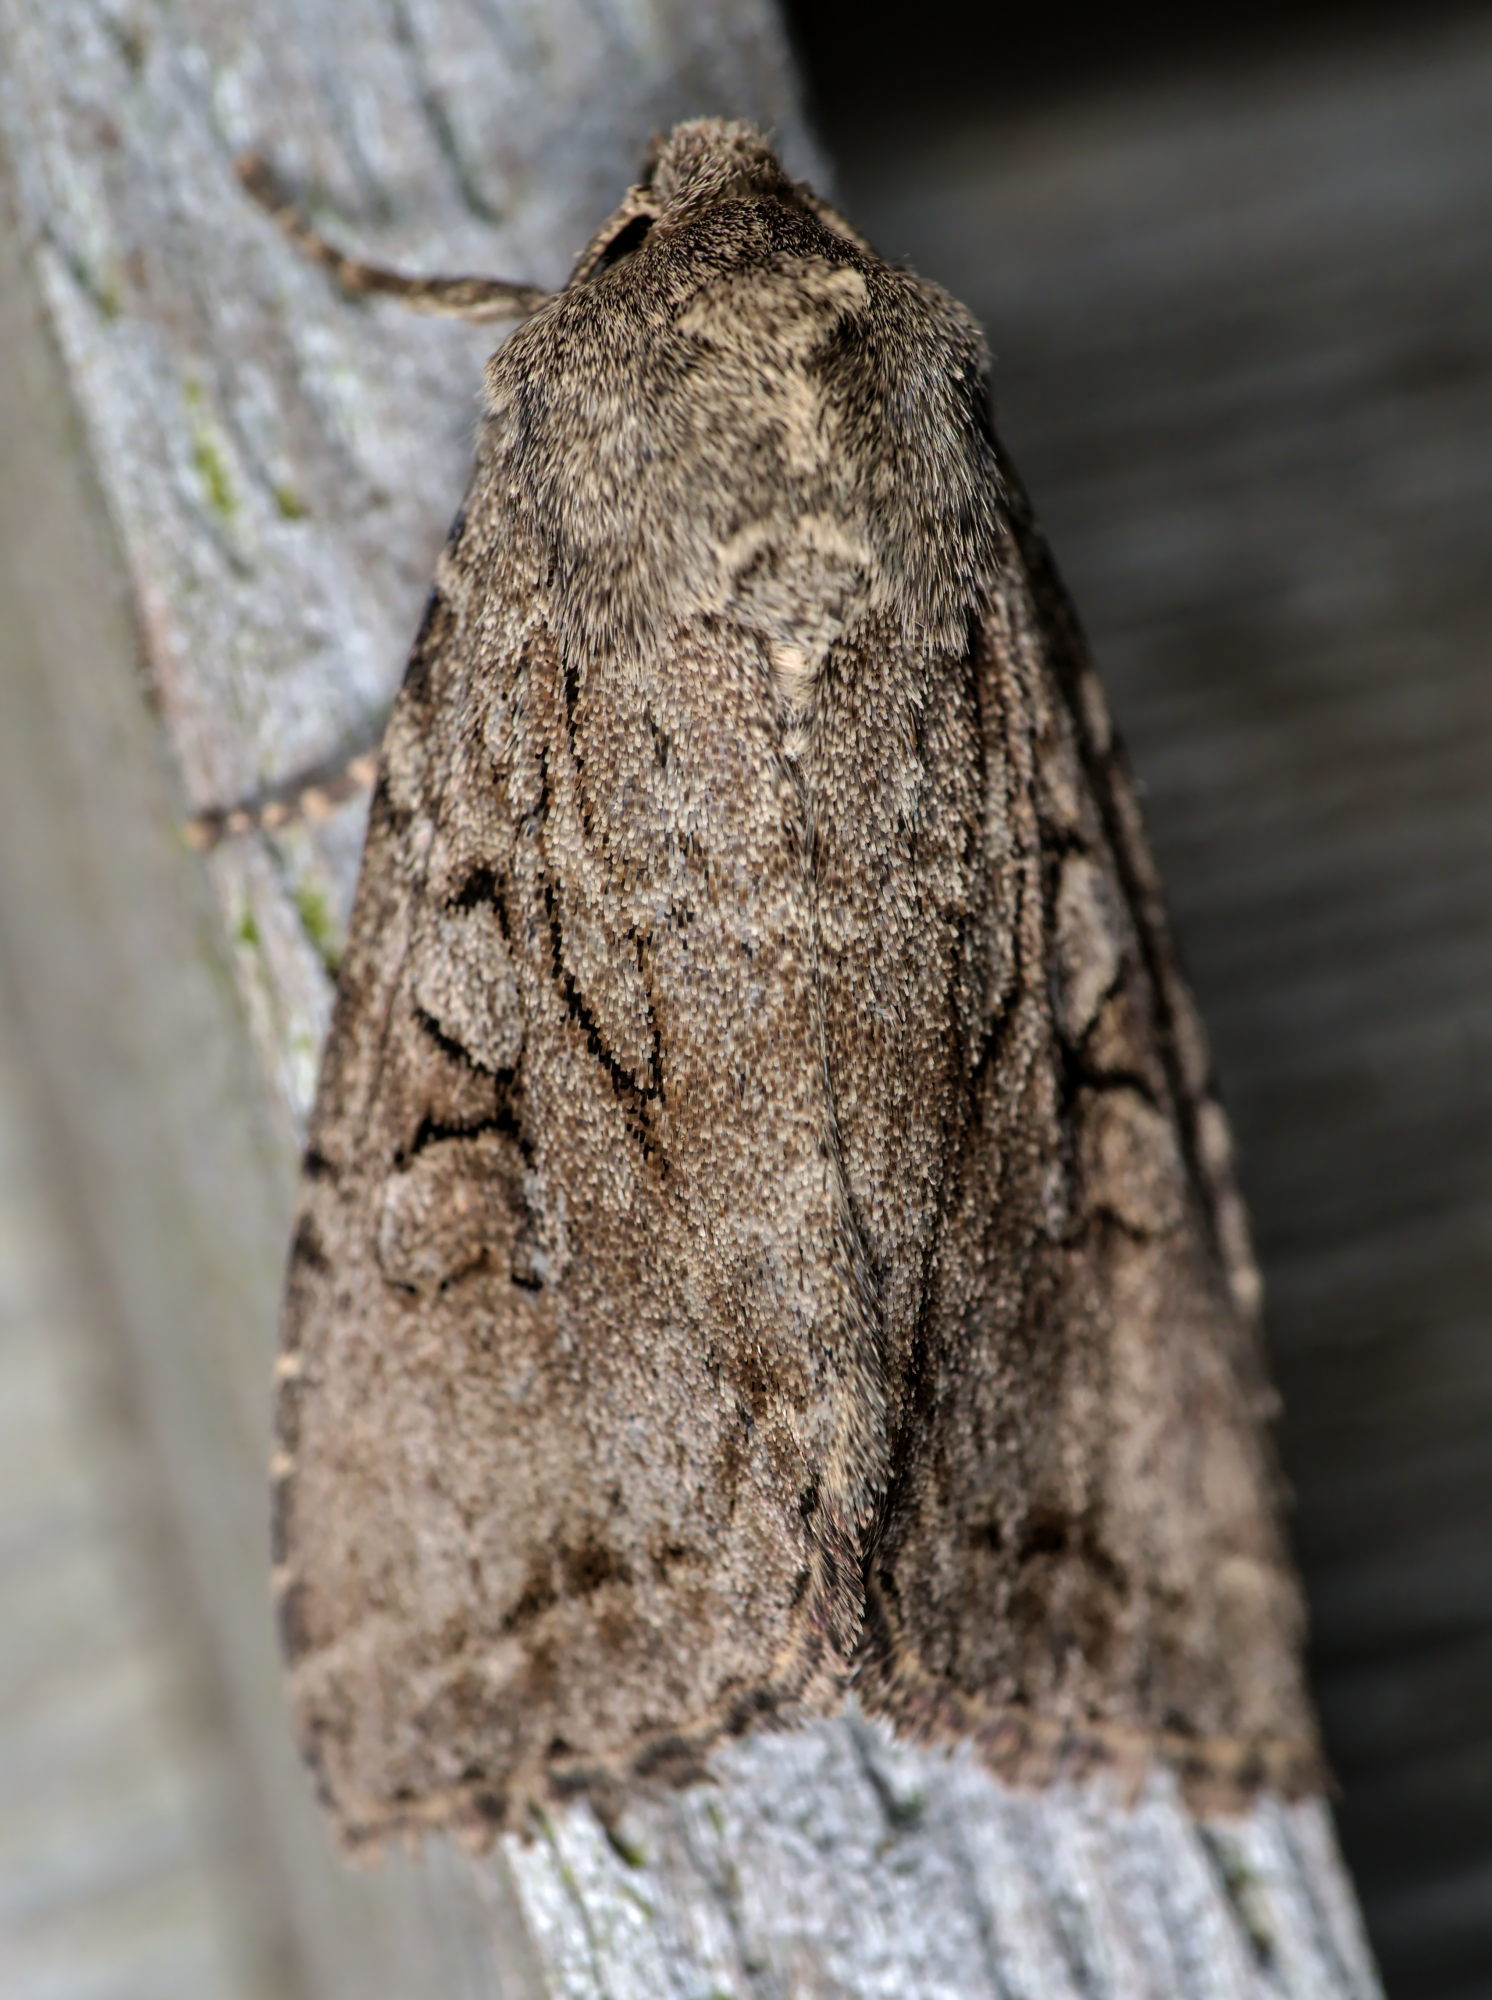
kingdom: Animalia
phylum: Arthropoda
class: Insecta
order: Lepidoptera
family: Noctuidae
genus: Apterogenum
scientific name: Apterogenum ypsillon
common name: Dingy shears
